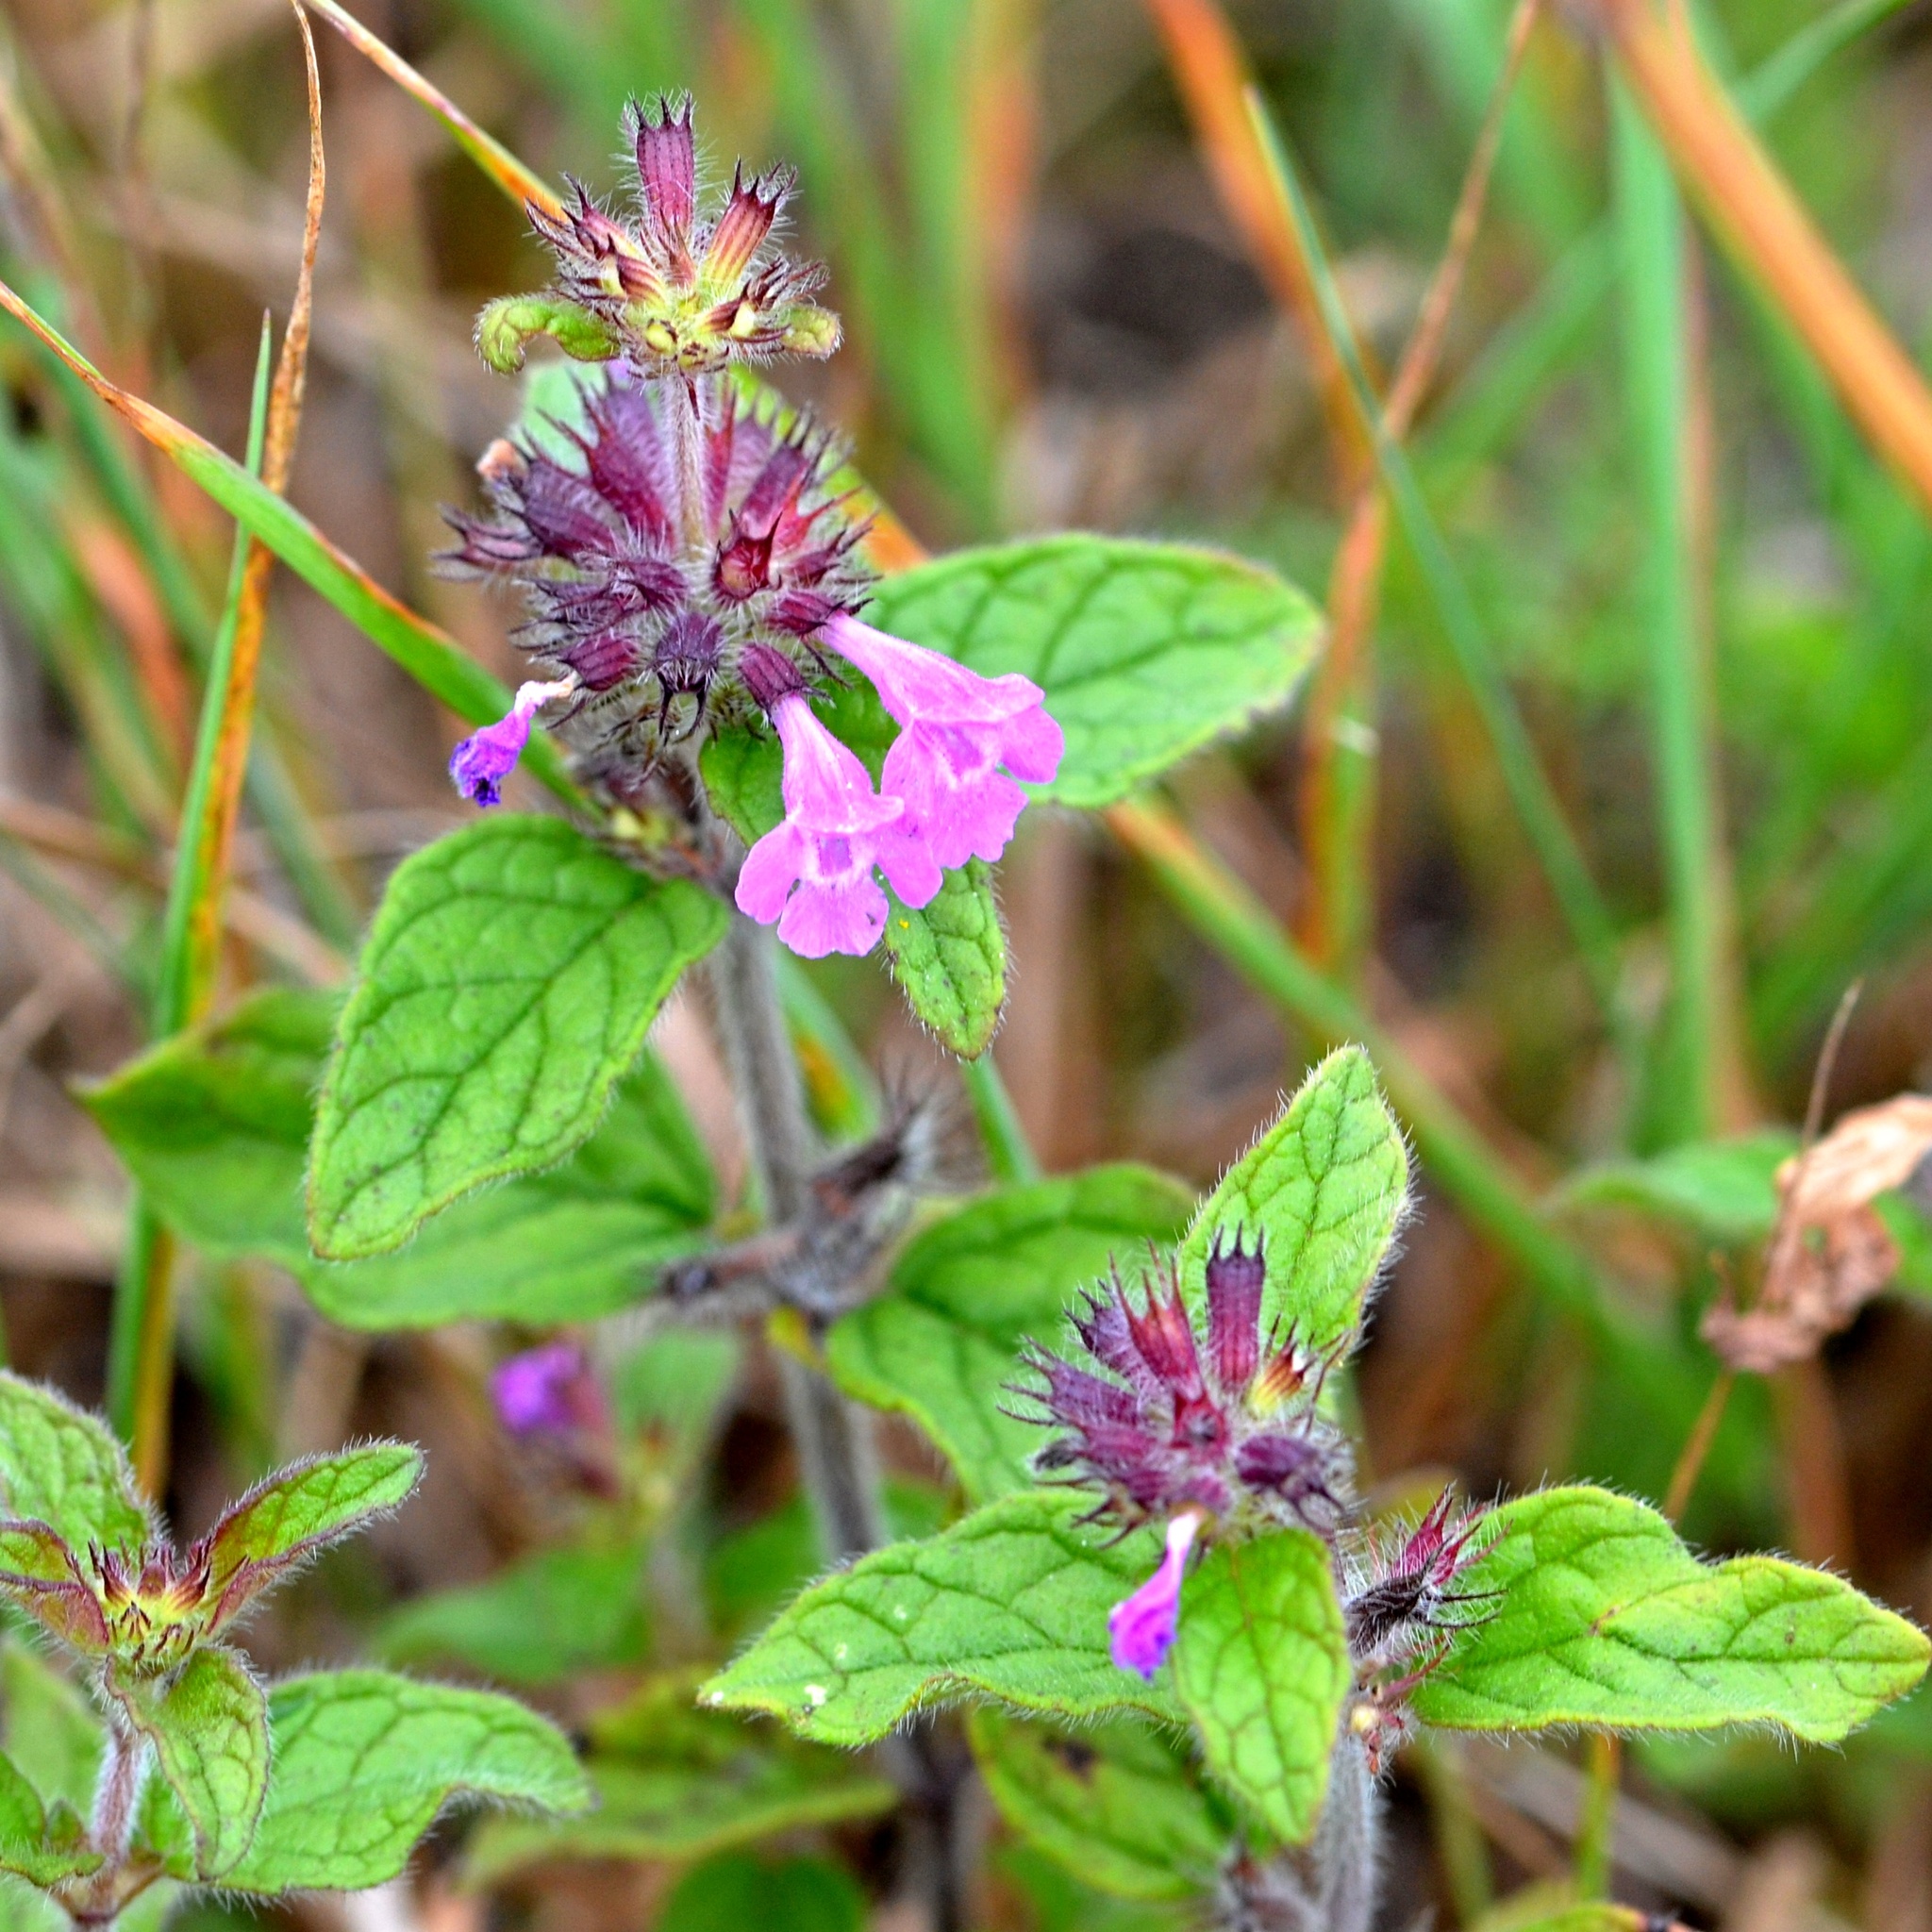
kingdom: Plantae
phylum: Tracheophyta
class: Magnoliopsida
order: Lamiales
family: Lamiaceae
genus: Clinopodium
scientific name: Clinopodium vulgare
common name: Wild basil
